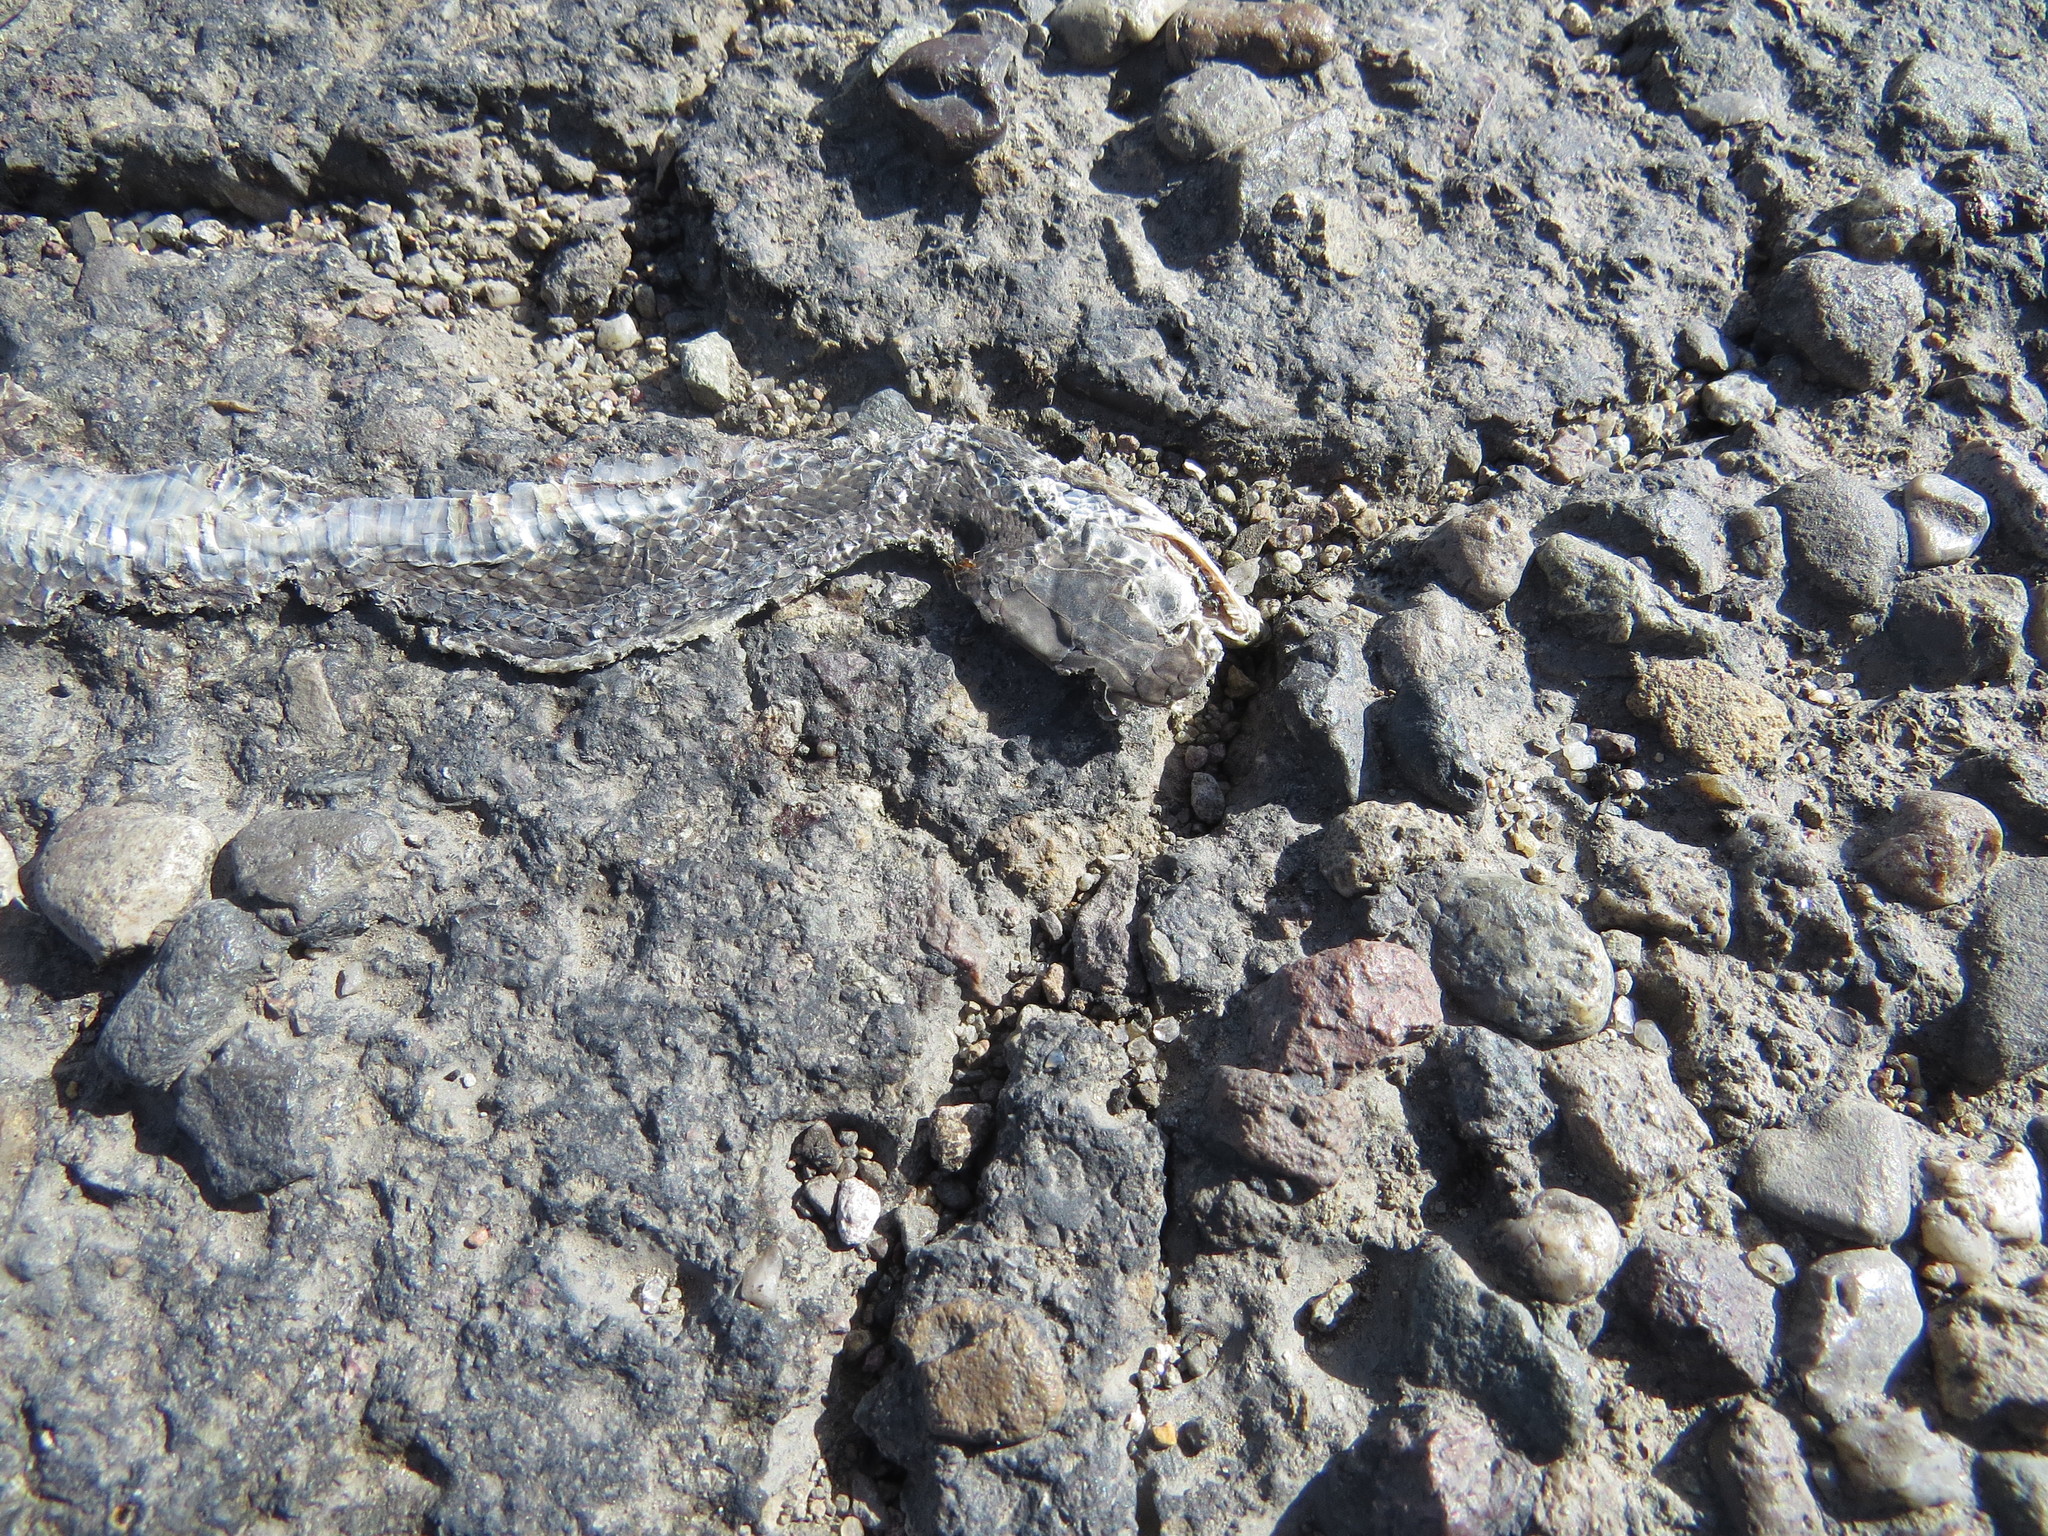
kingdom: Animalia
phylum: Chordata
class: Squamata
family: Colubridae
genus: Masticophis
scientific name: Masticophis mentovarius
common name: Neotropical whip snake
